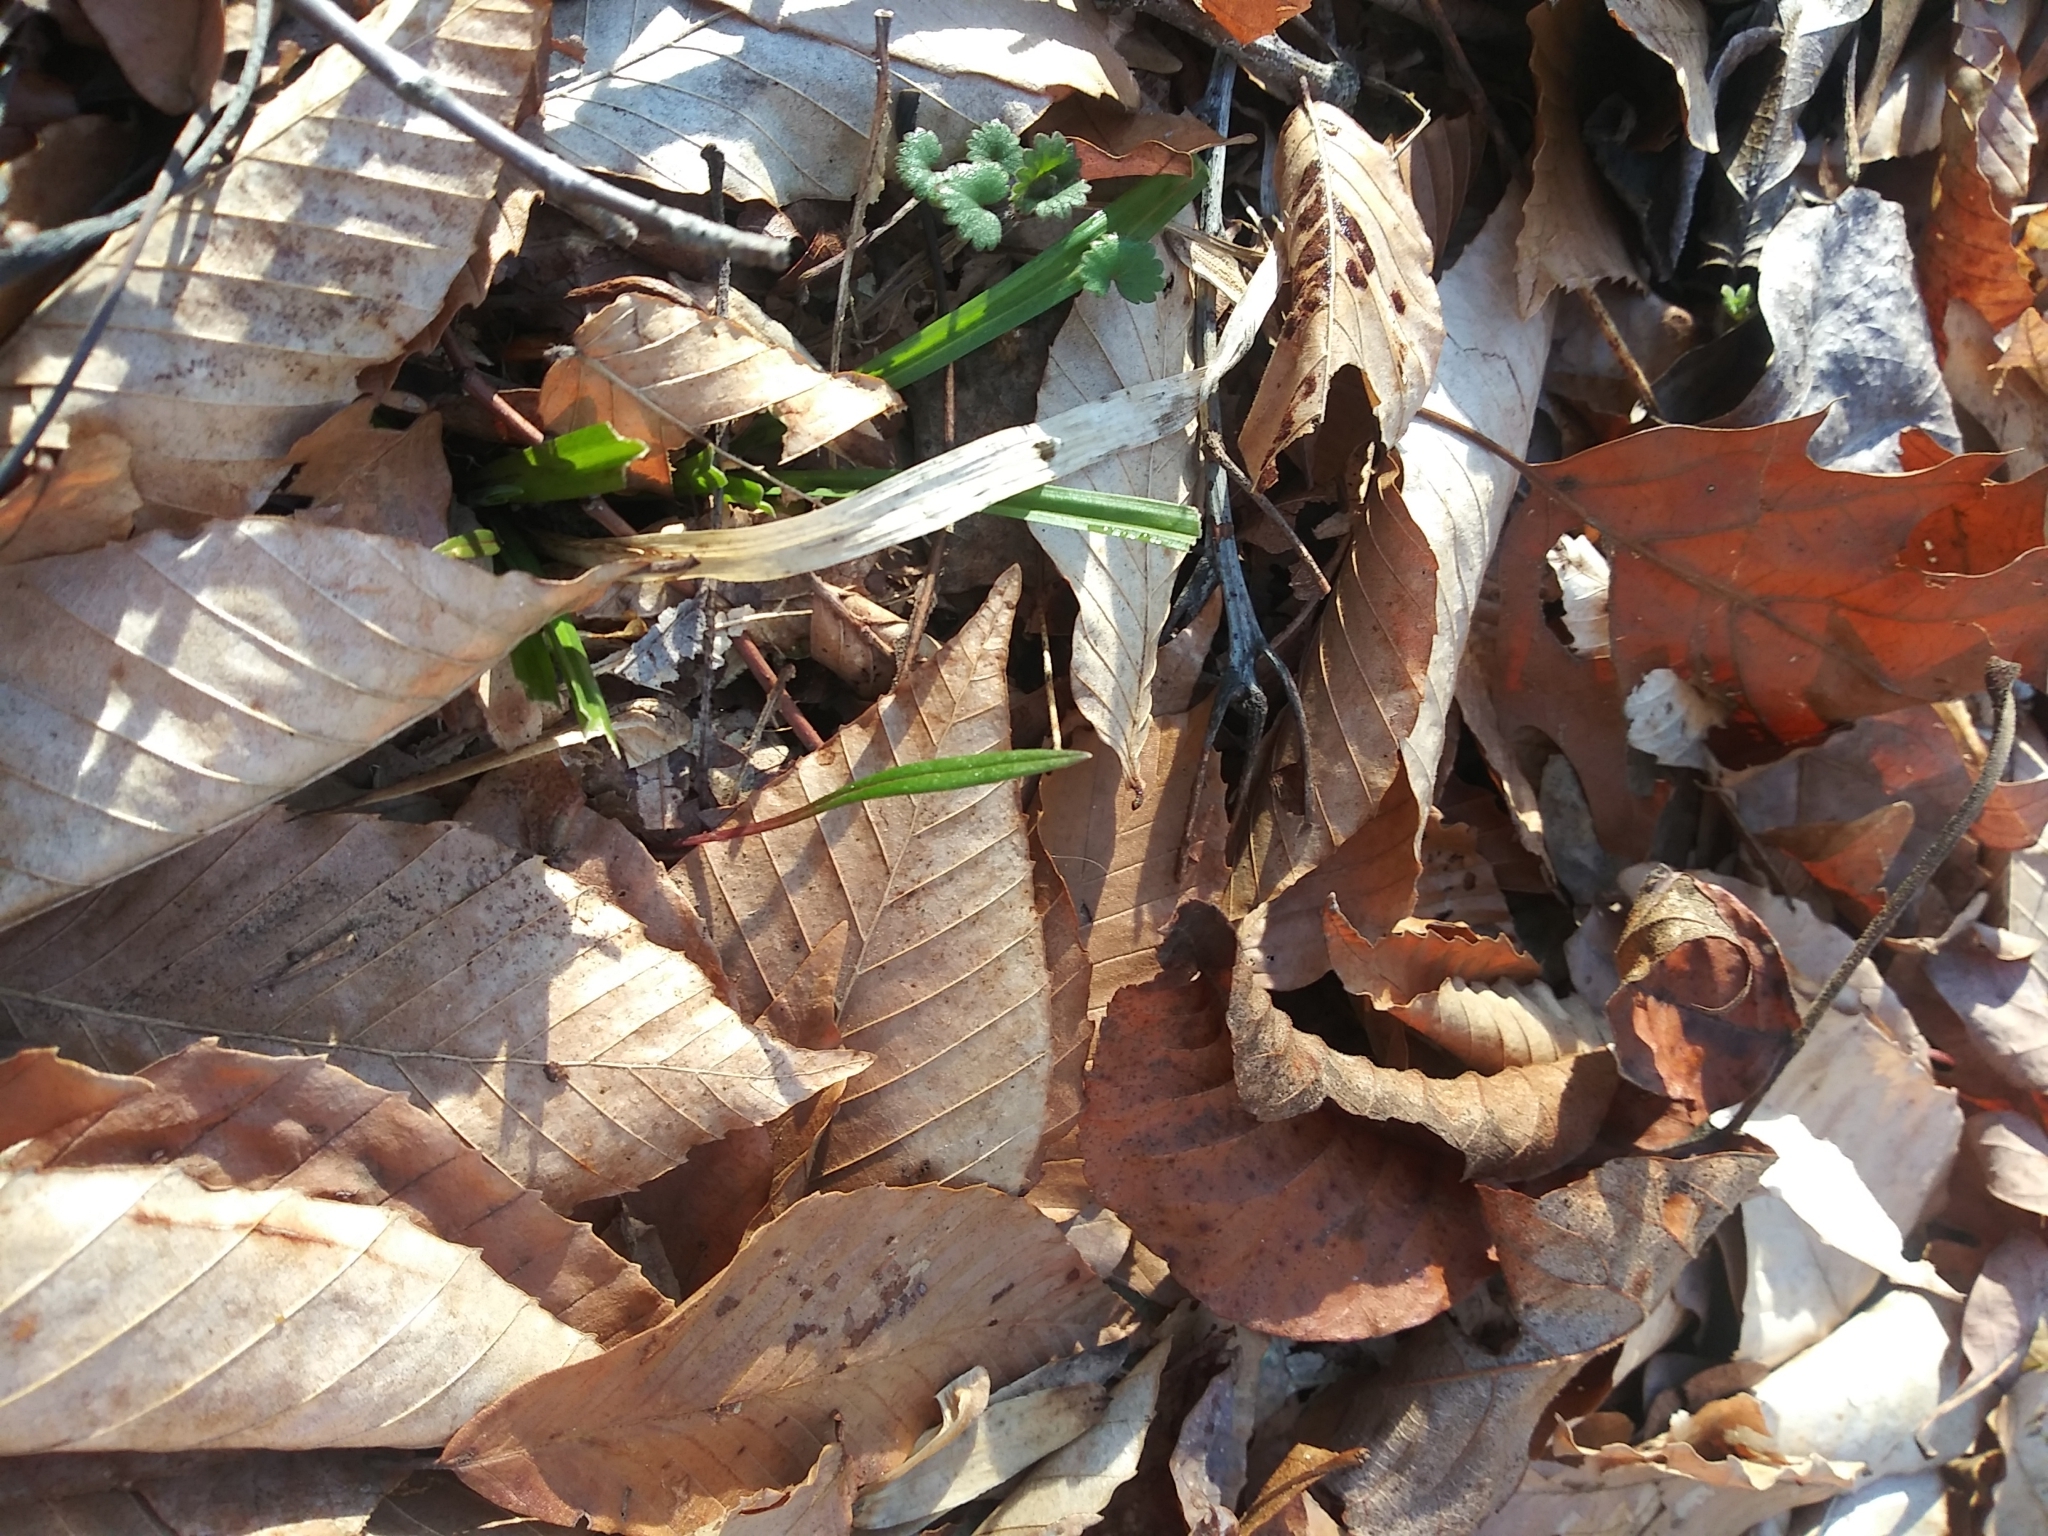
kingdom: Plantae
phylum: Tracheophyta
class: Magnoliopsida
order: Caryophyllales
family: Montiaceae
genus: Claytonia
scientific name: Claytonia virginica
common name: Virginia springbeauty
